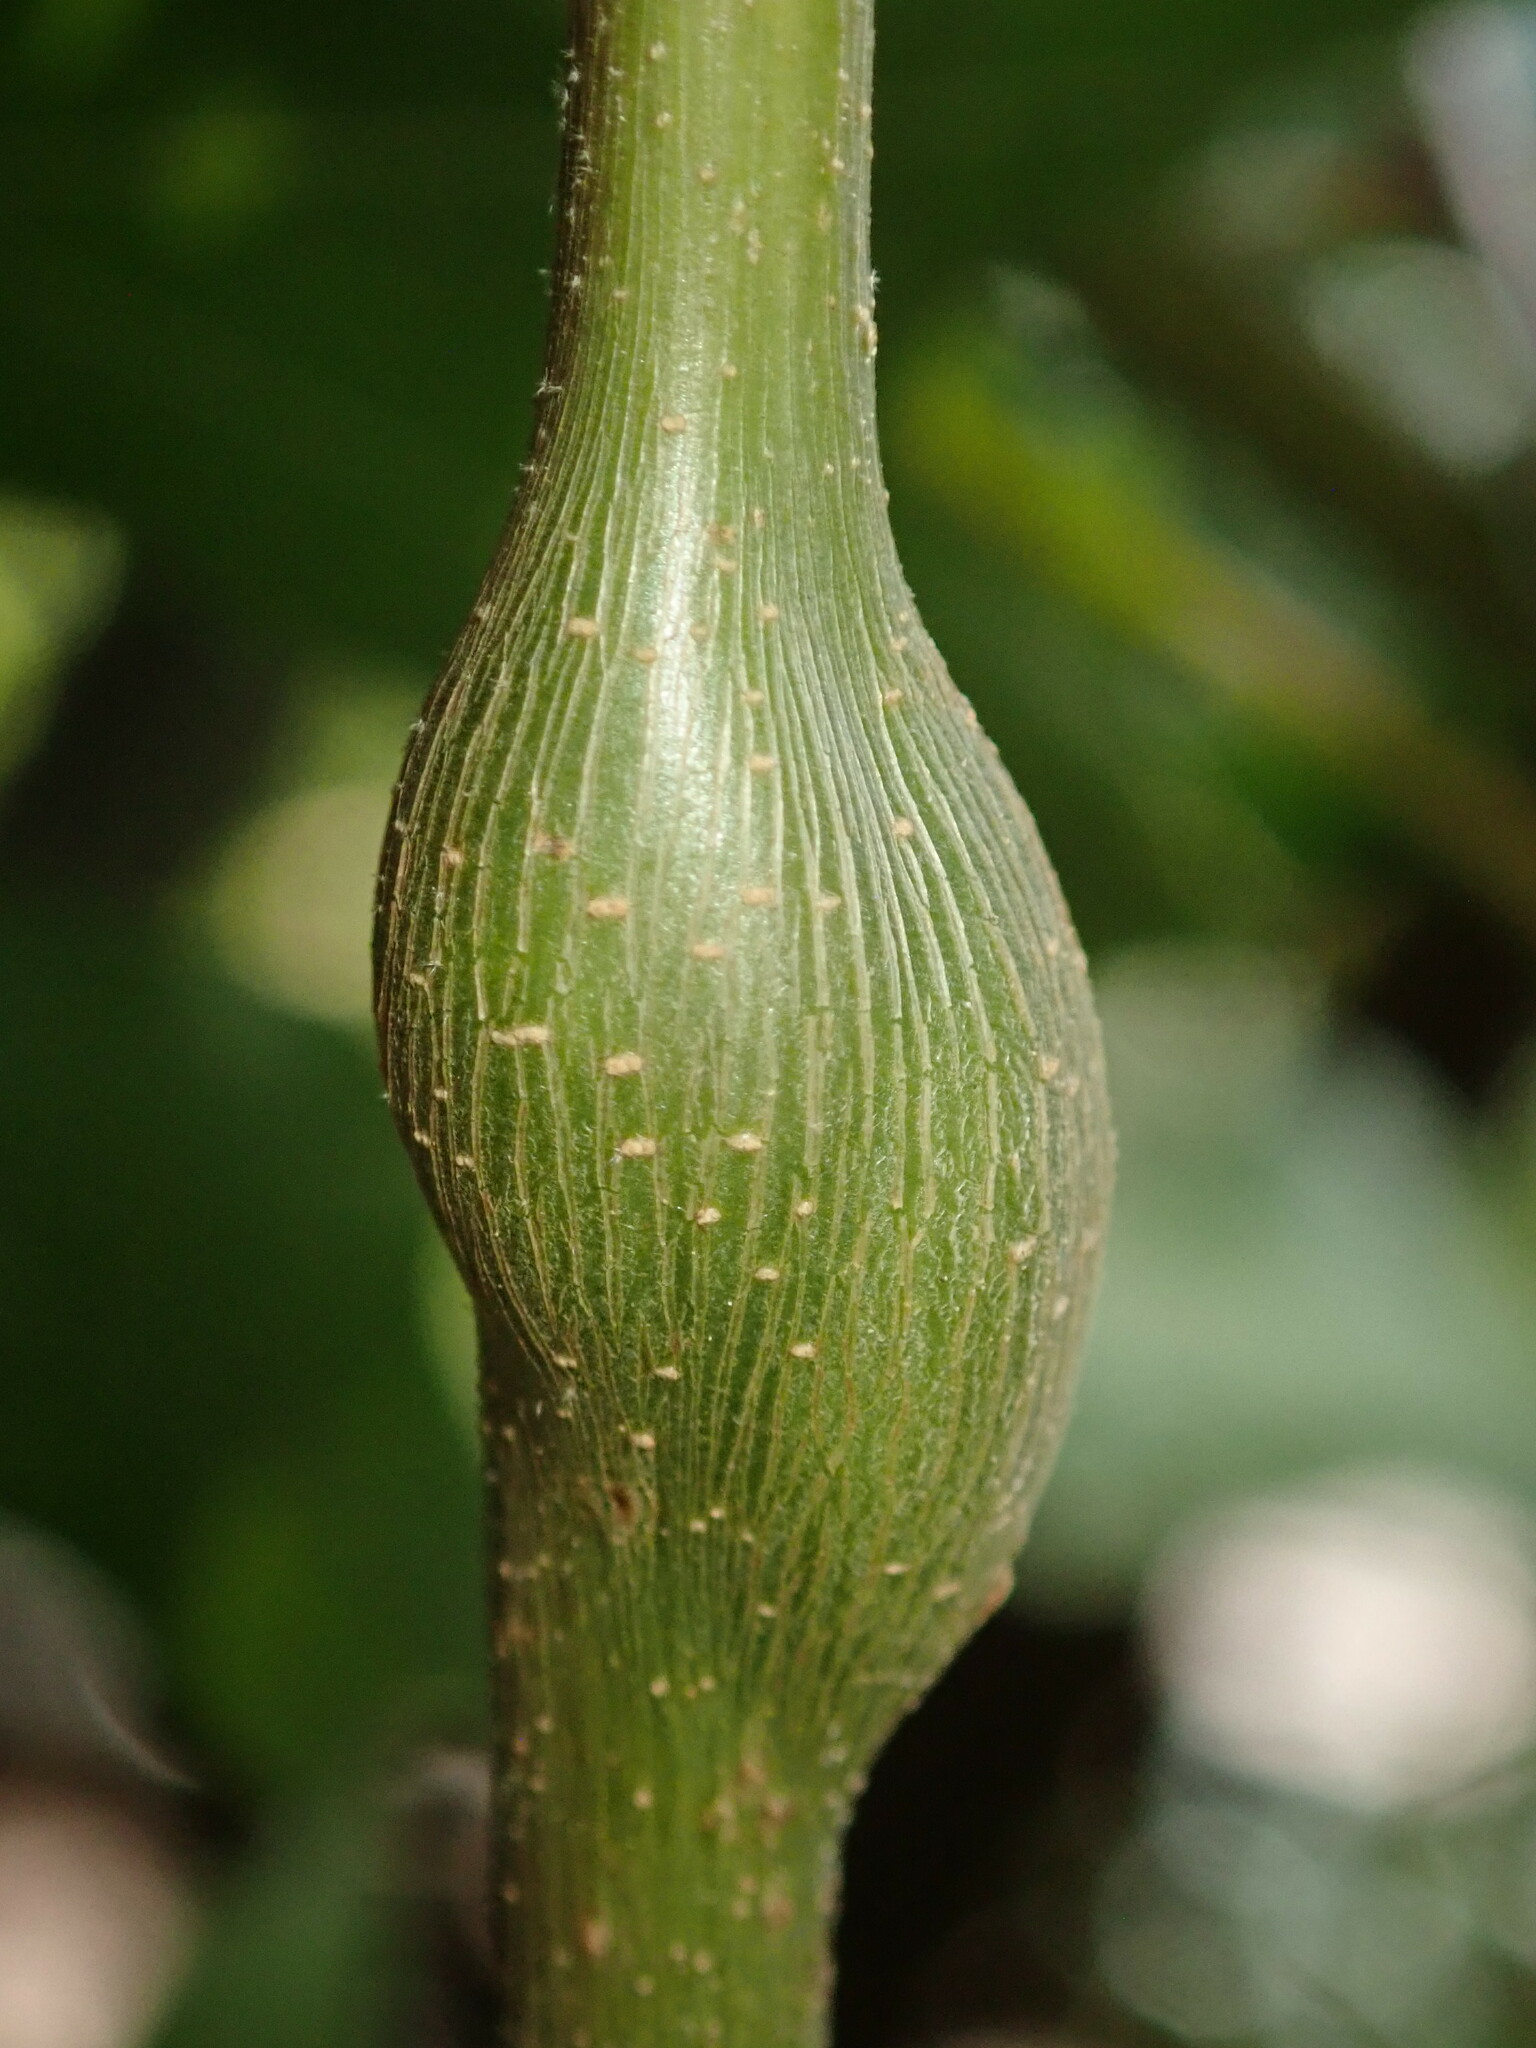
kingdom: Animalia
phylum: Arthropoda
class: Insecta
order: Hymenoptera
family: Cynipidae
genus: Callirhytis
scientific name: Callirhytis
